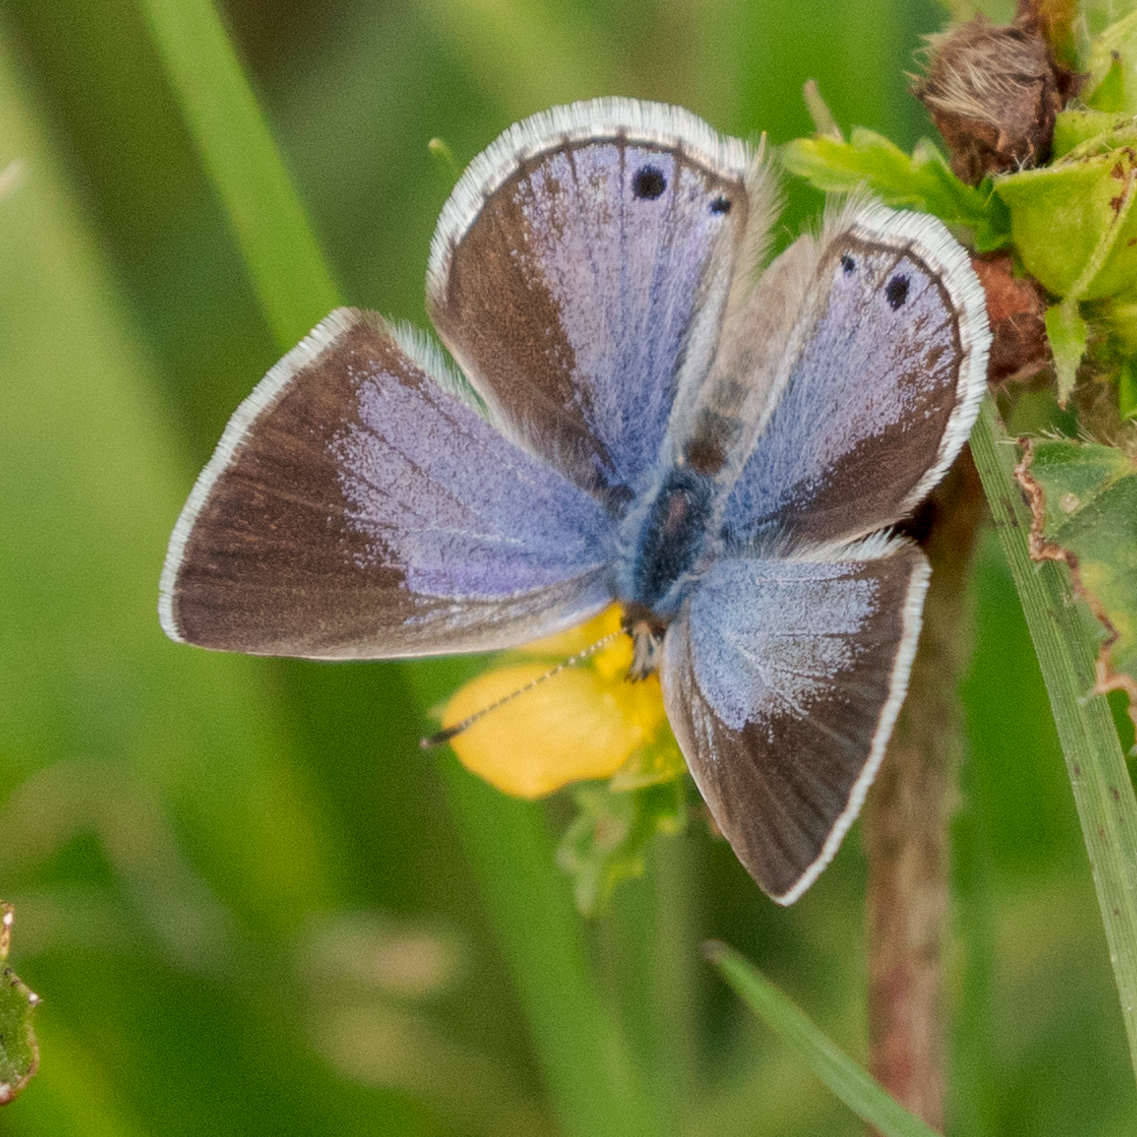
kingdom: Animalia
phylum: Arthropoda
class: Insecta
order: Lepidoptera
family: Lycaenidae
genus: Echinargus
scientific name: Echinargus isola
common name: Reakirt's blue
